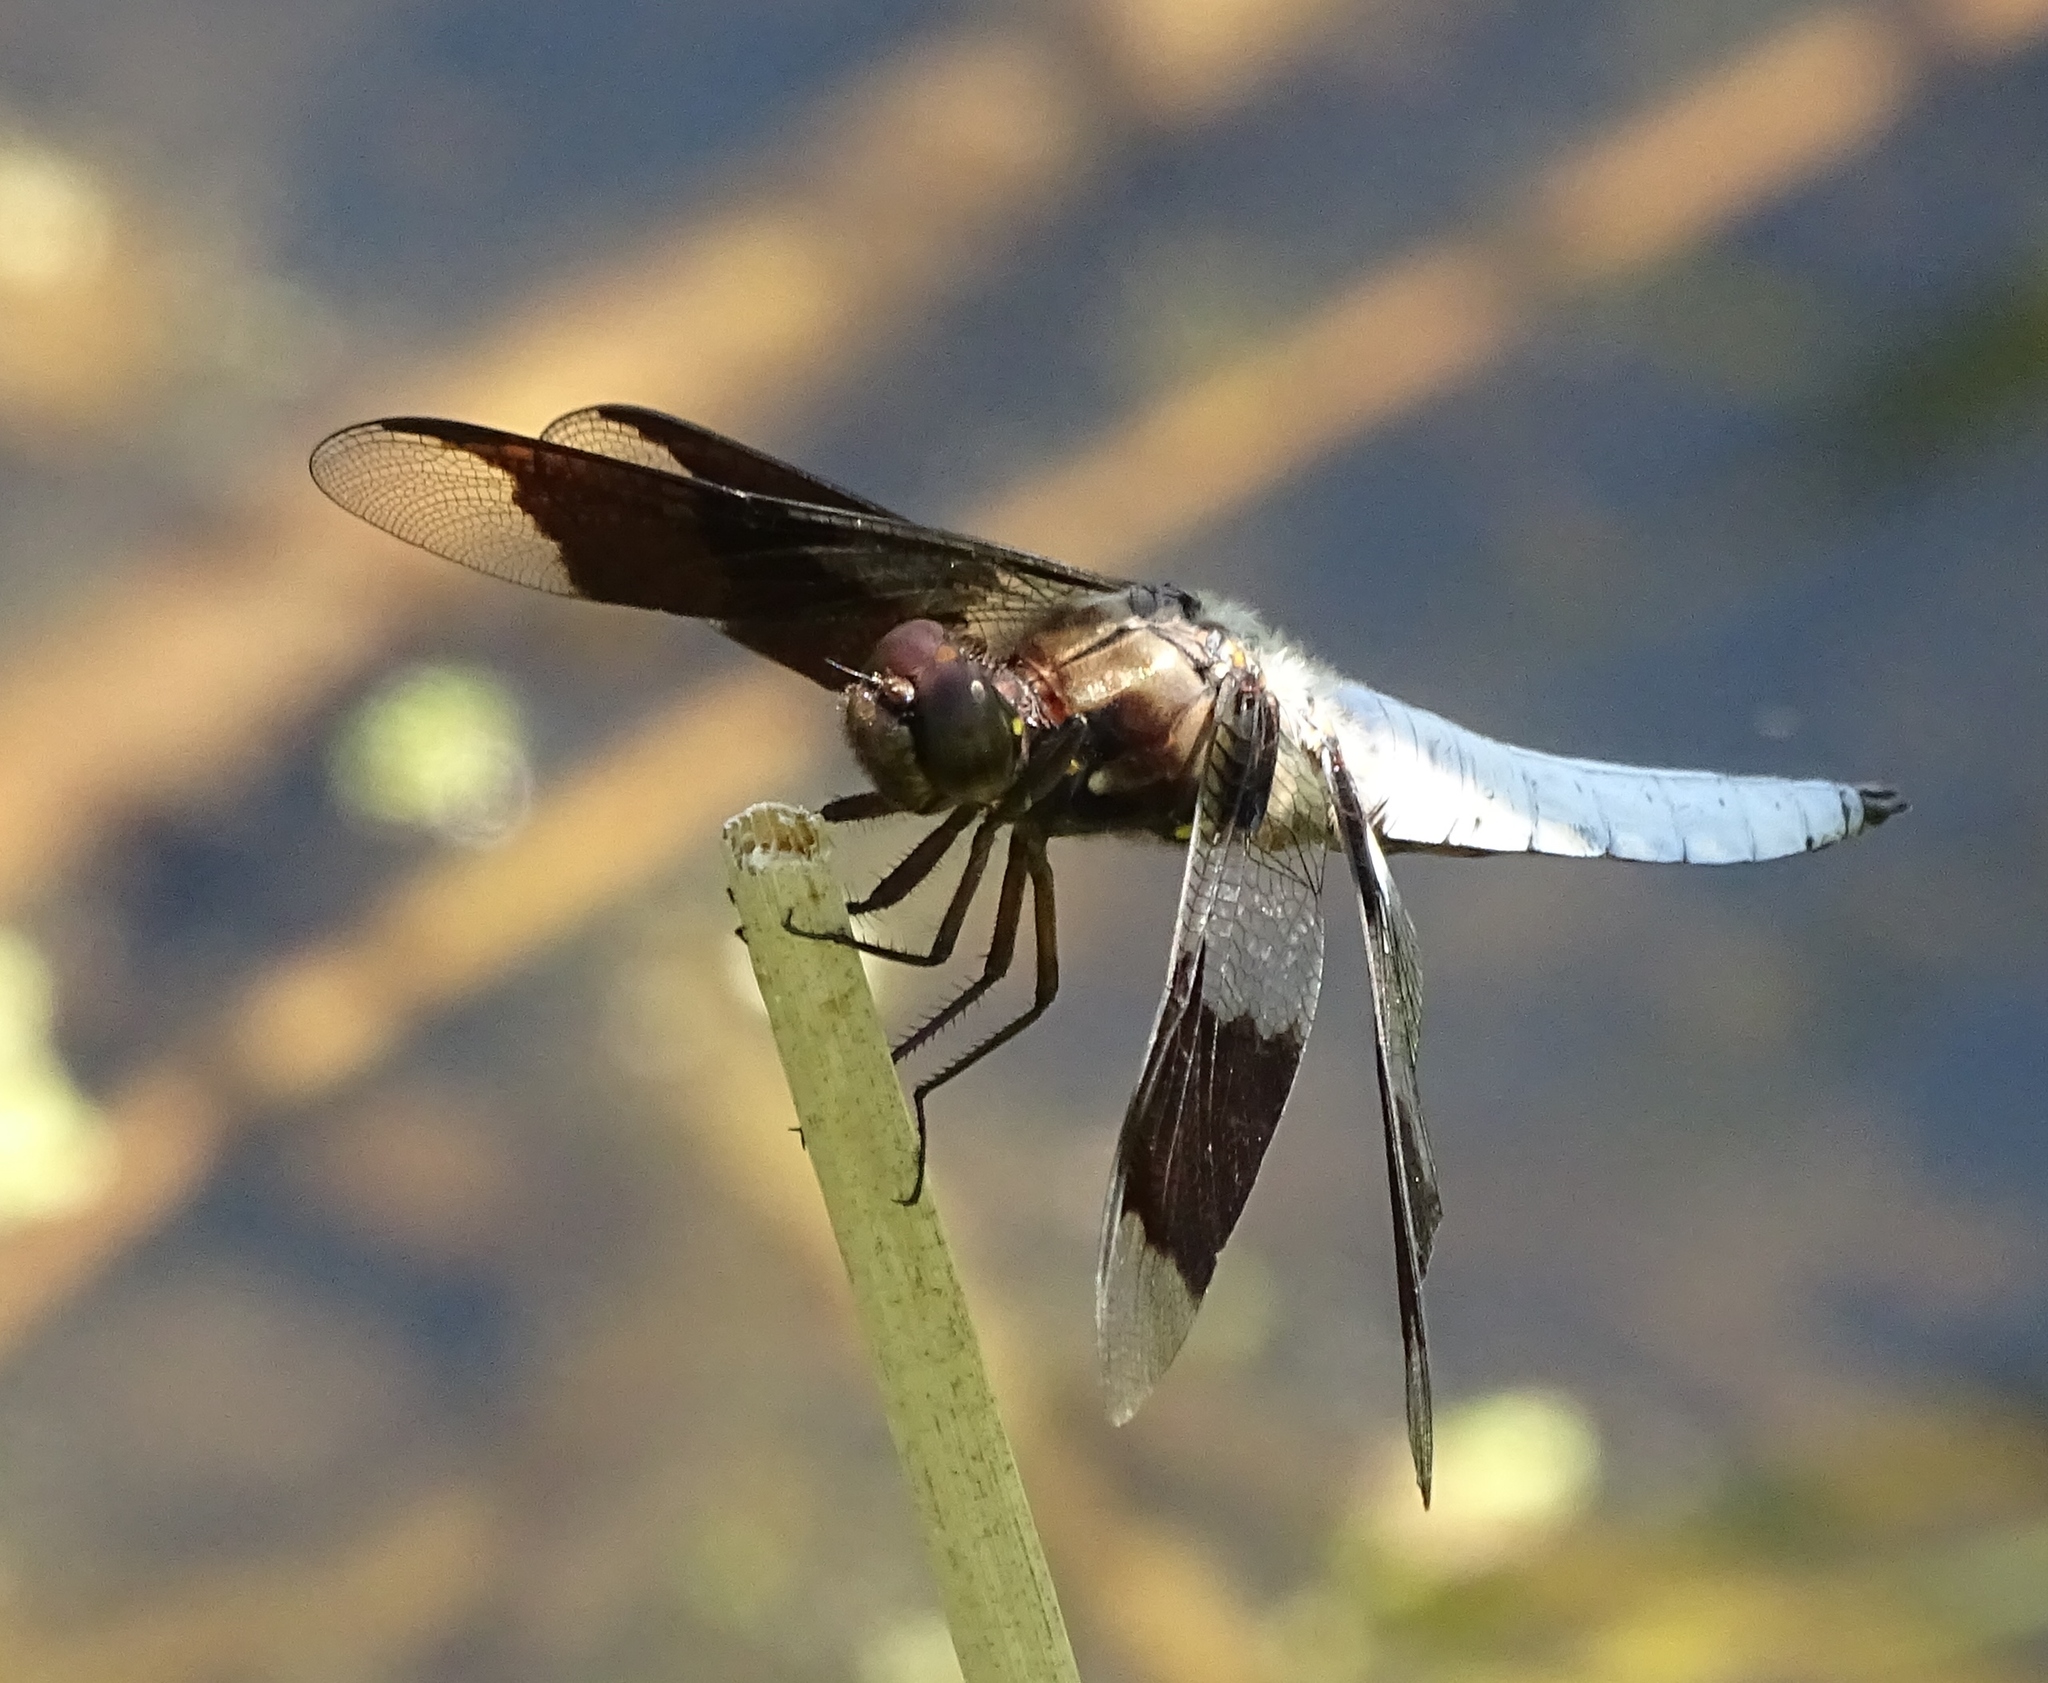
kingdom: Animalia
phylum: Arthropoda
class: Insecta
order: Odonata
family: Libellulidae
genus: Plathemis
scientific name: Plathemis lydia
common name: Common whitetail
